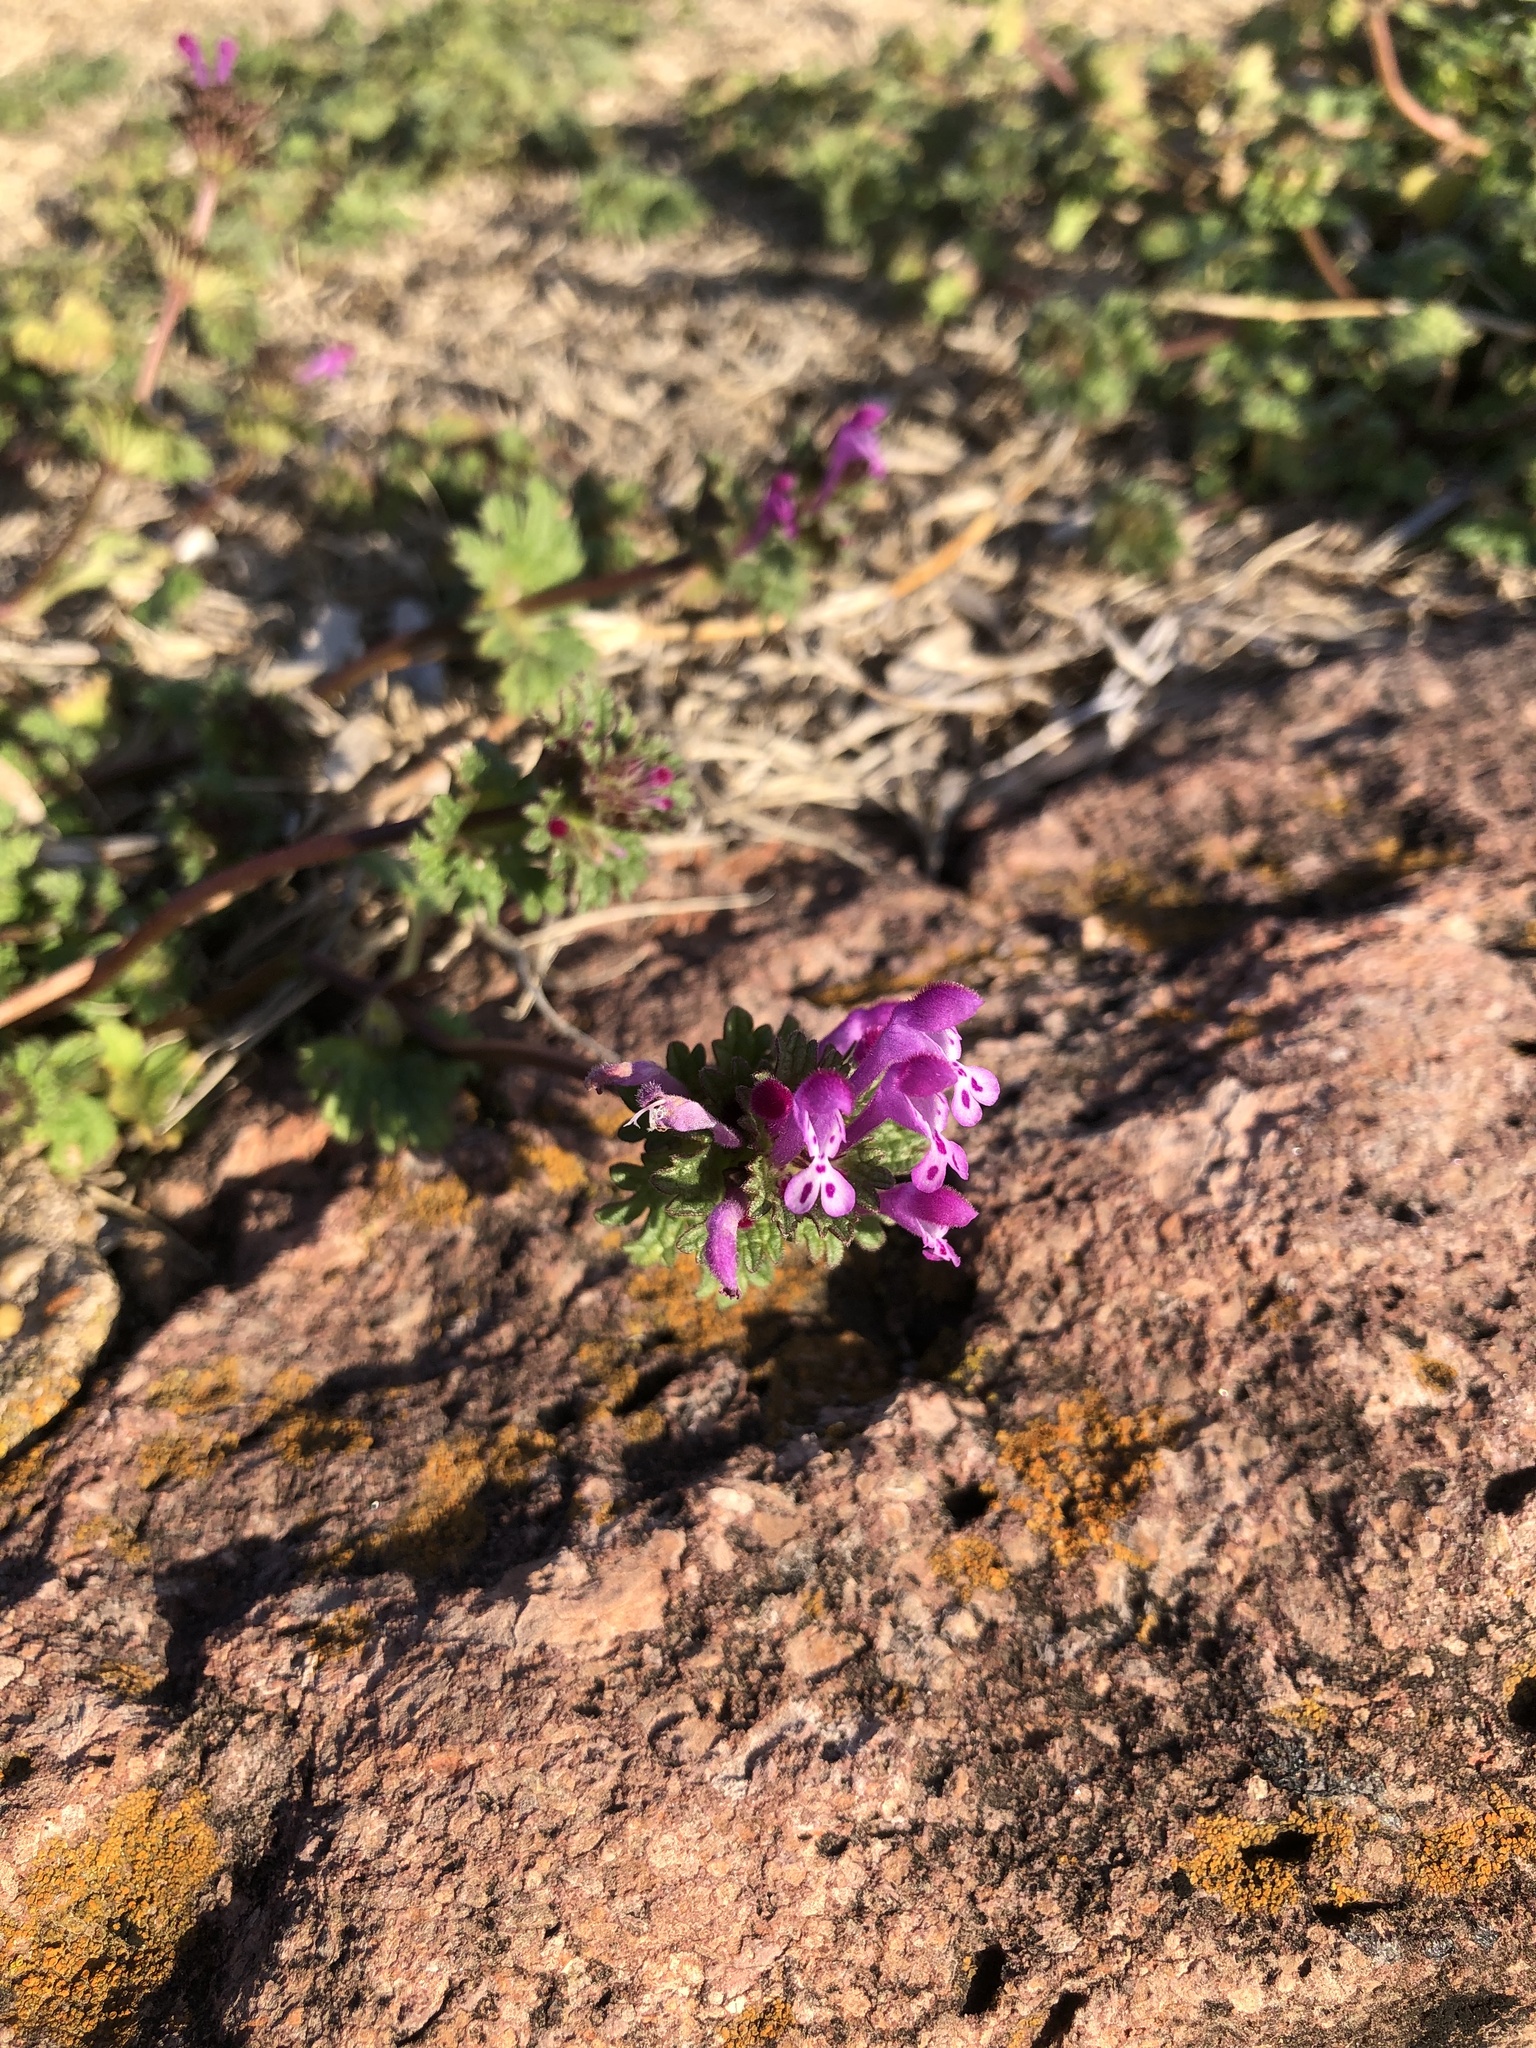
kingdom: Plantae
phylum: Tracheophyta
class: Magnoliopsida
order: Lamiales
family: Lamiaceae
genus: Lamium
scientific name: Lamium amplexicaule
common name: Henbit dead-nettle
